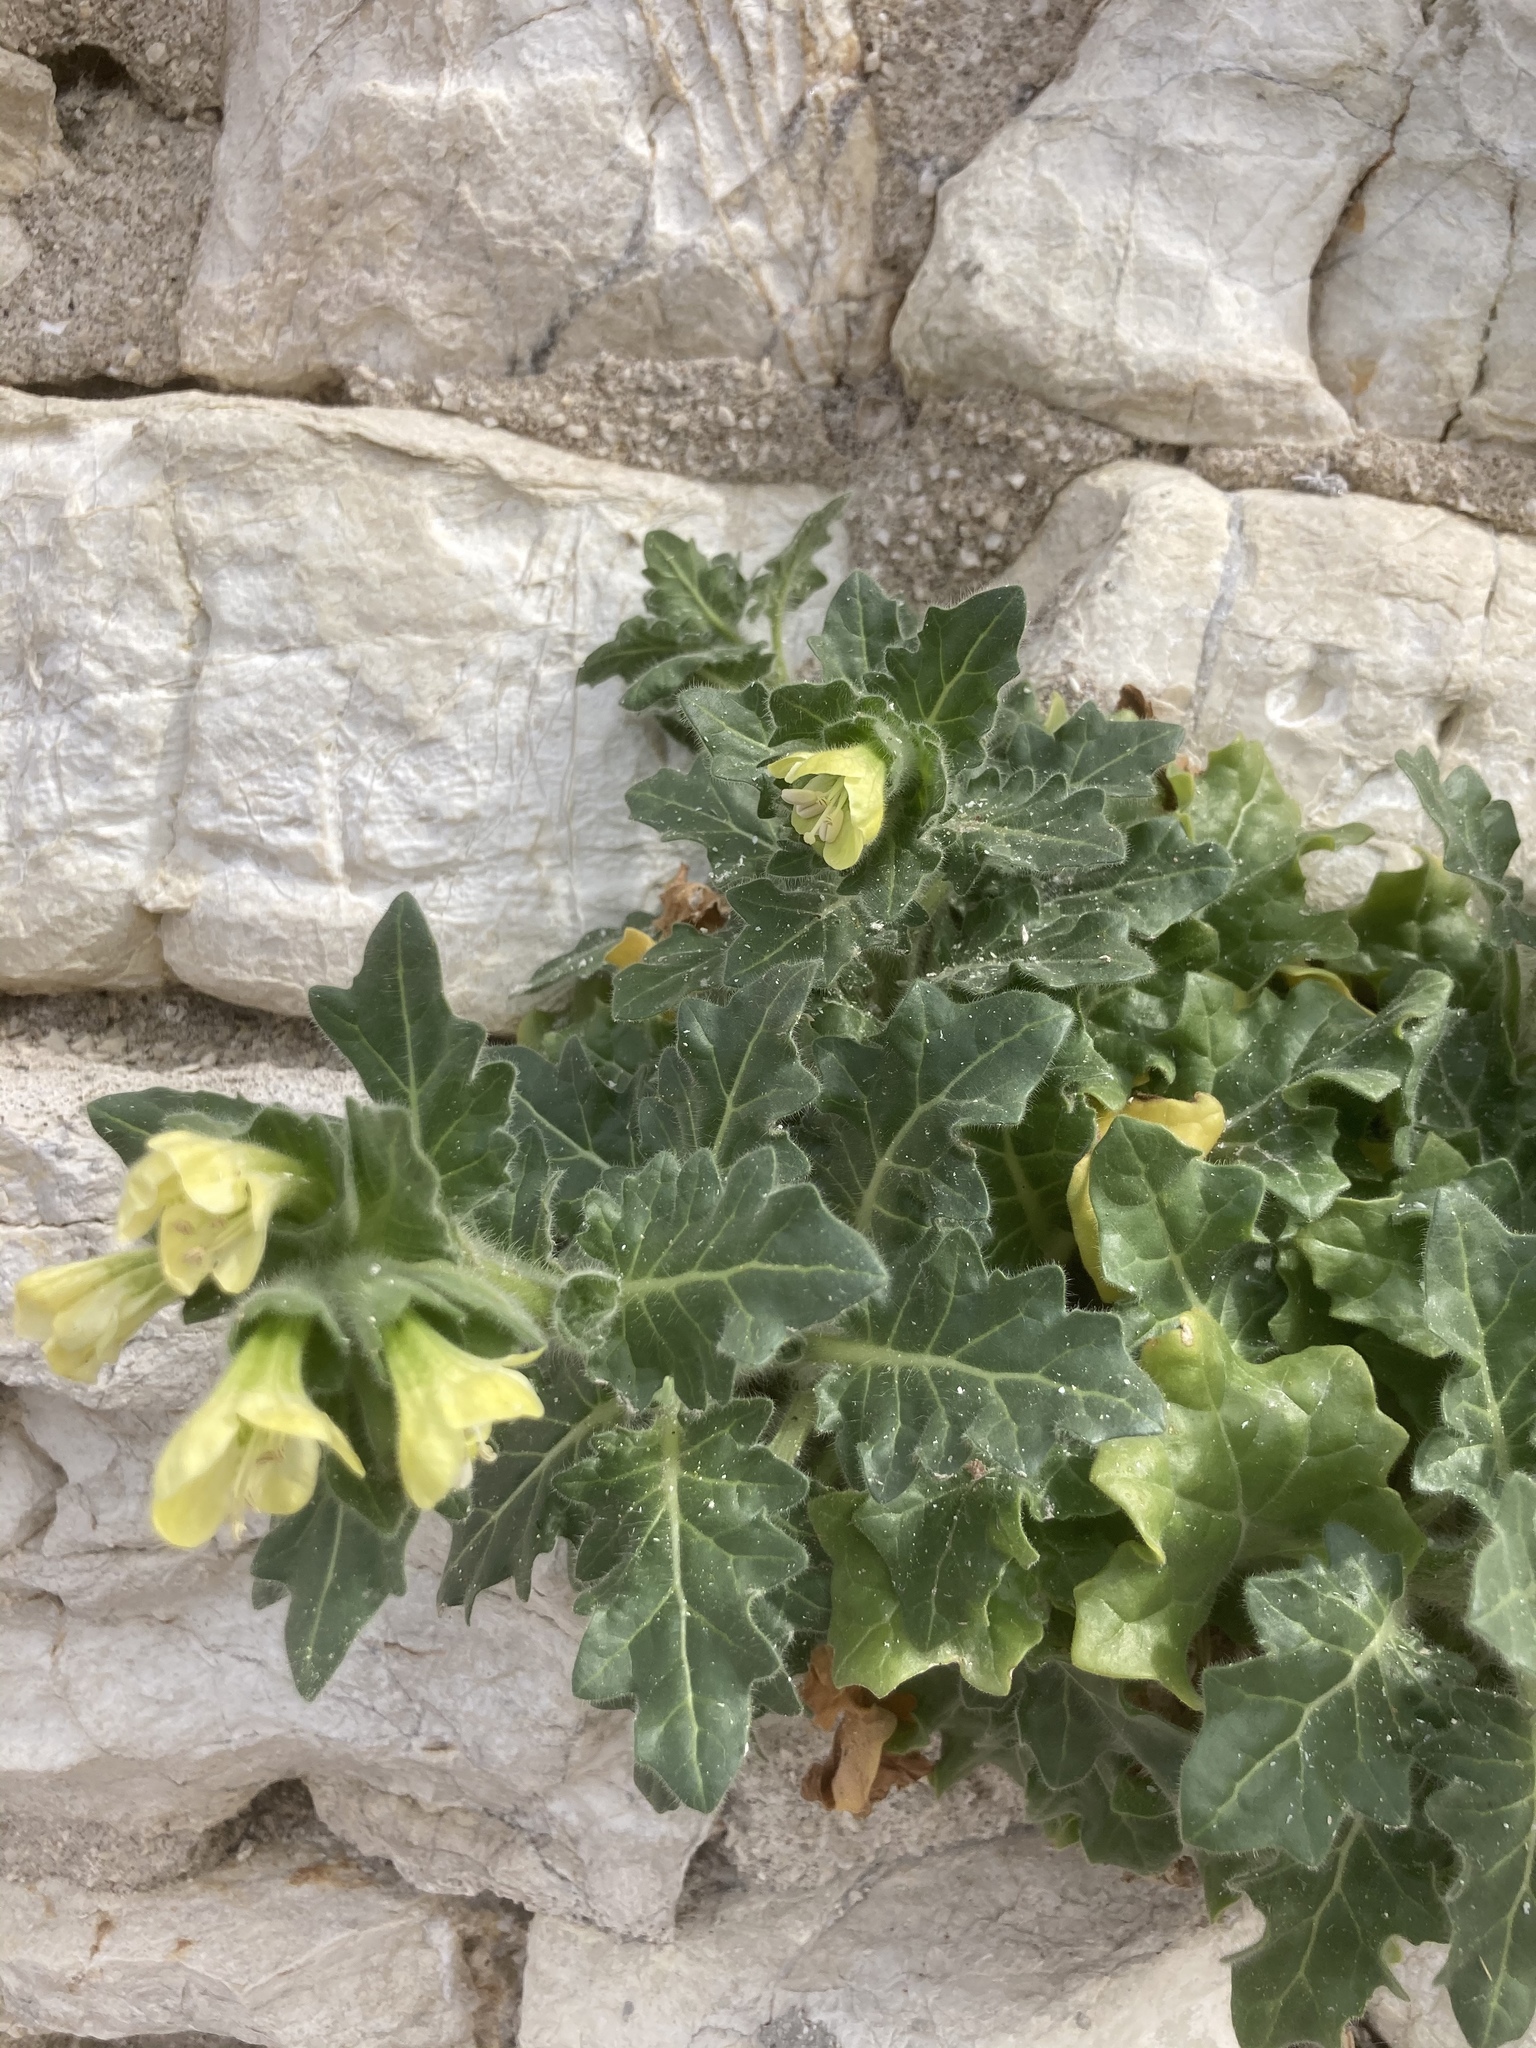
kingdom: Plantae
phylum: Tracheophyta
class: Magnoliopsida
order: Solanales
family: Solanaceae
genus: Hyoscyamus
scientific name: Hyoscyamus albus
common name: White henbane
